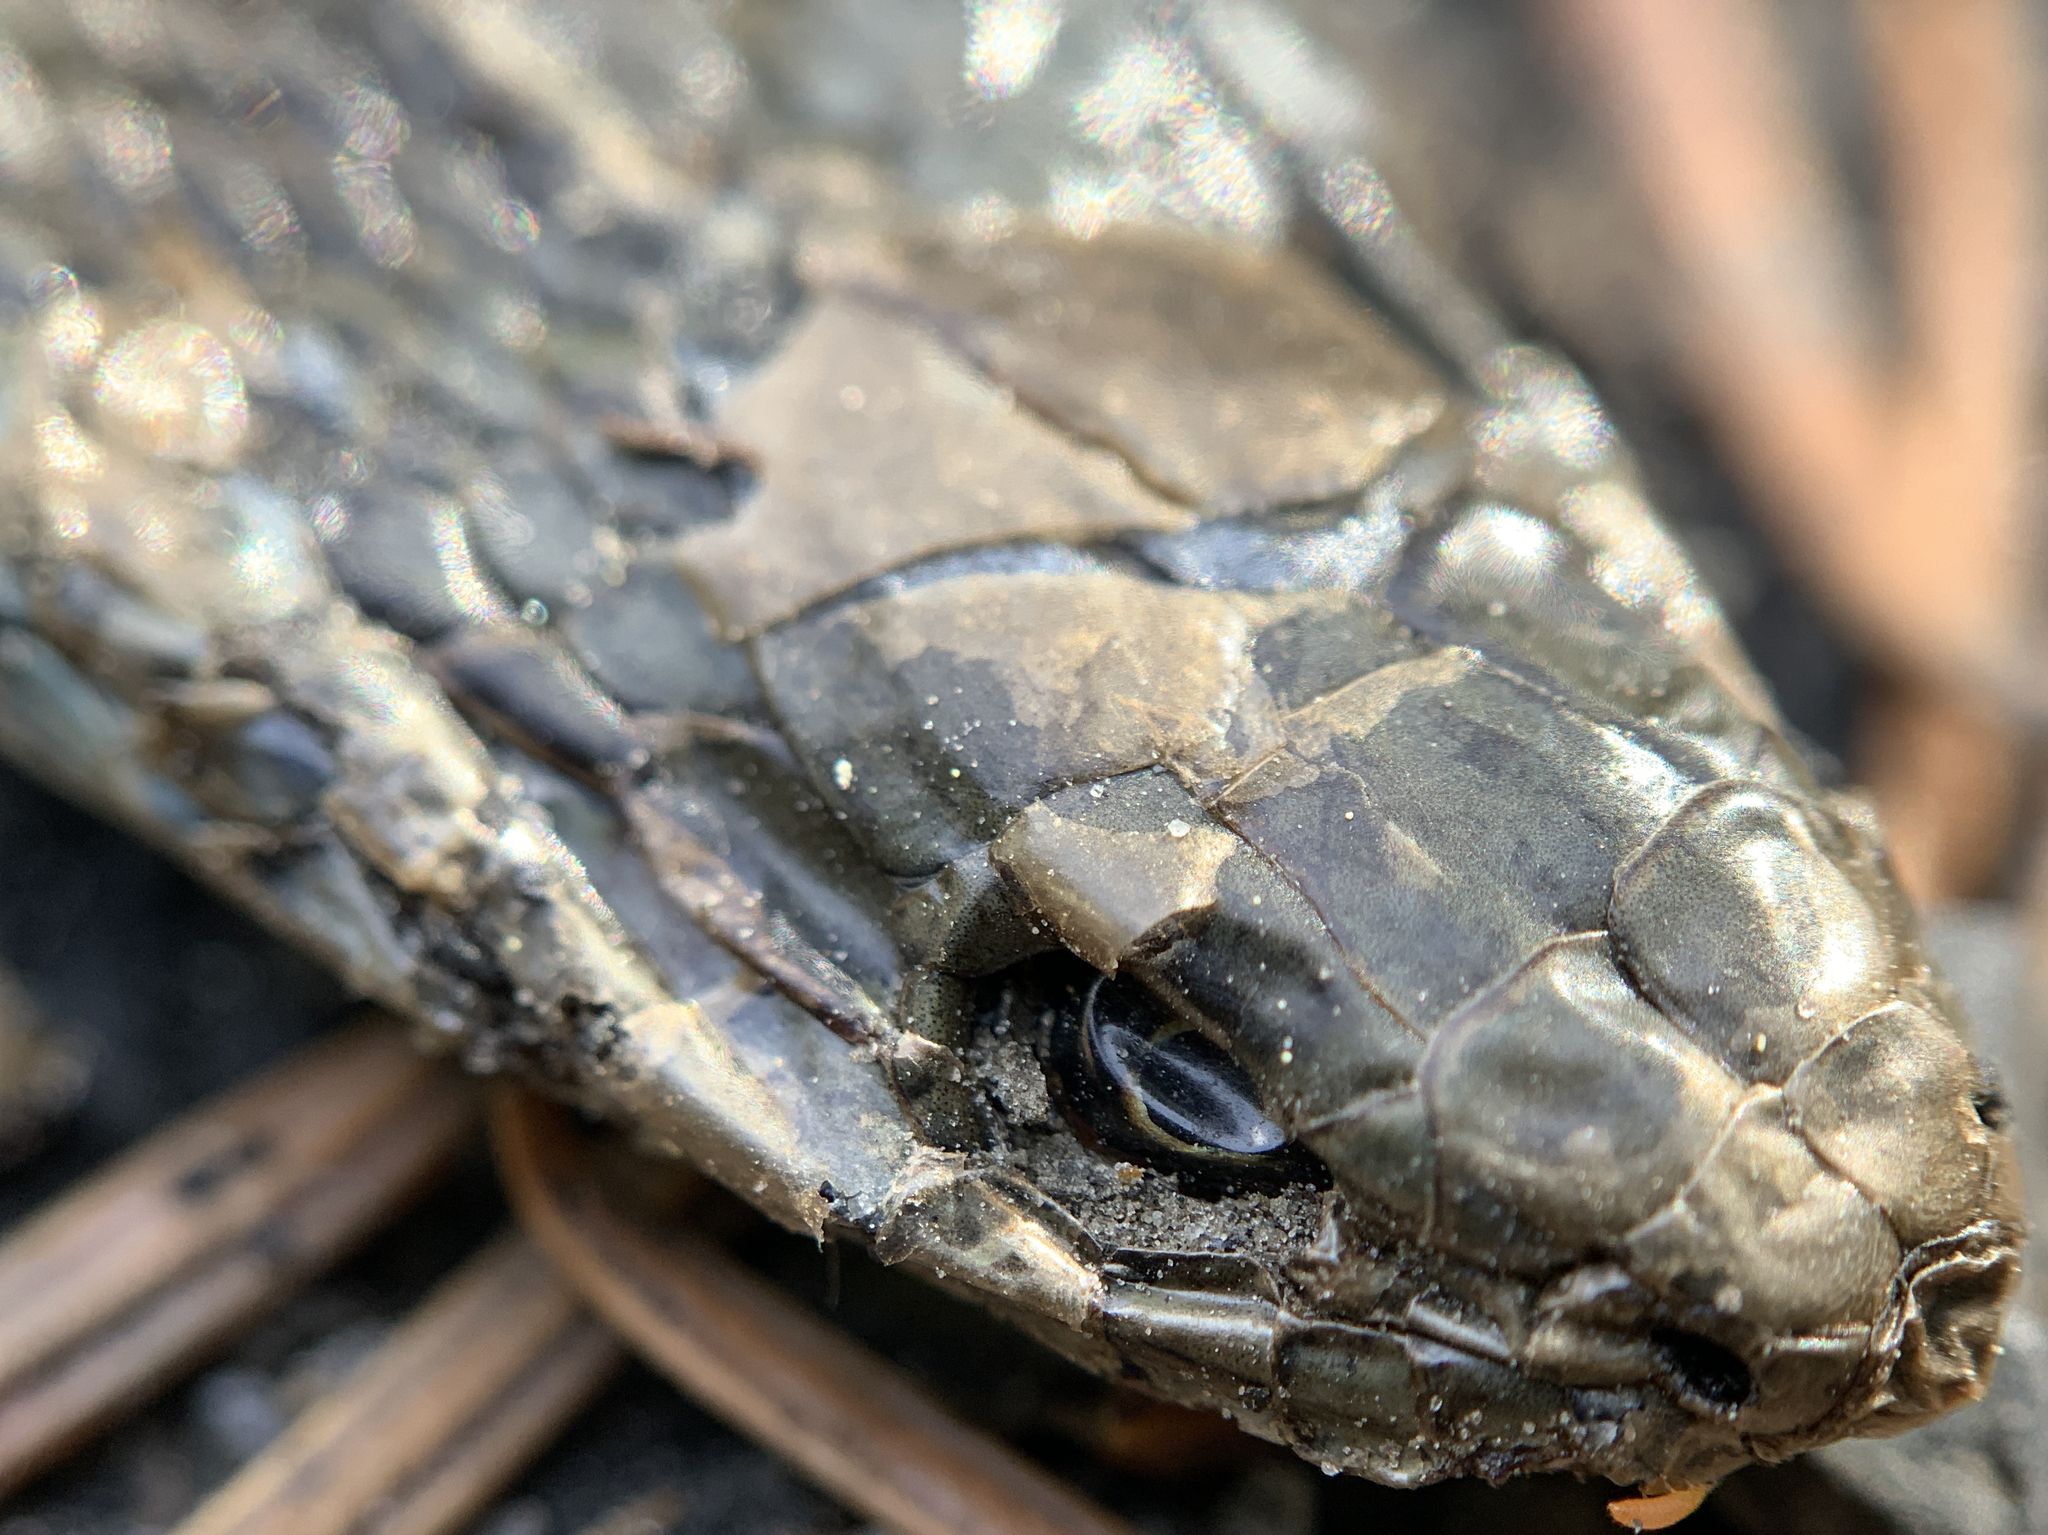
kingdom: Animalia
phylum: Chordata
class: Squamata
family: Colubridae
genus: Thamnophis
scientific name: Thamnophis elegans
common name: Western terrestrial garter snake
